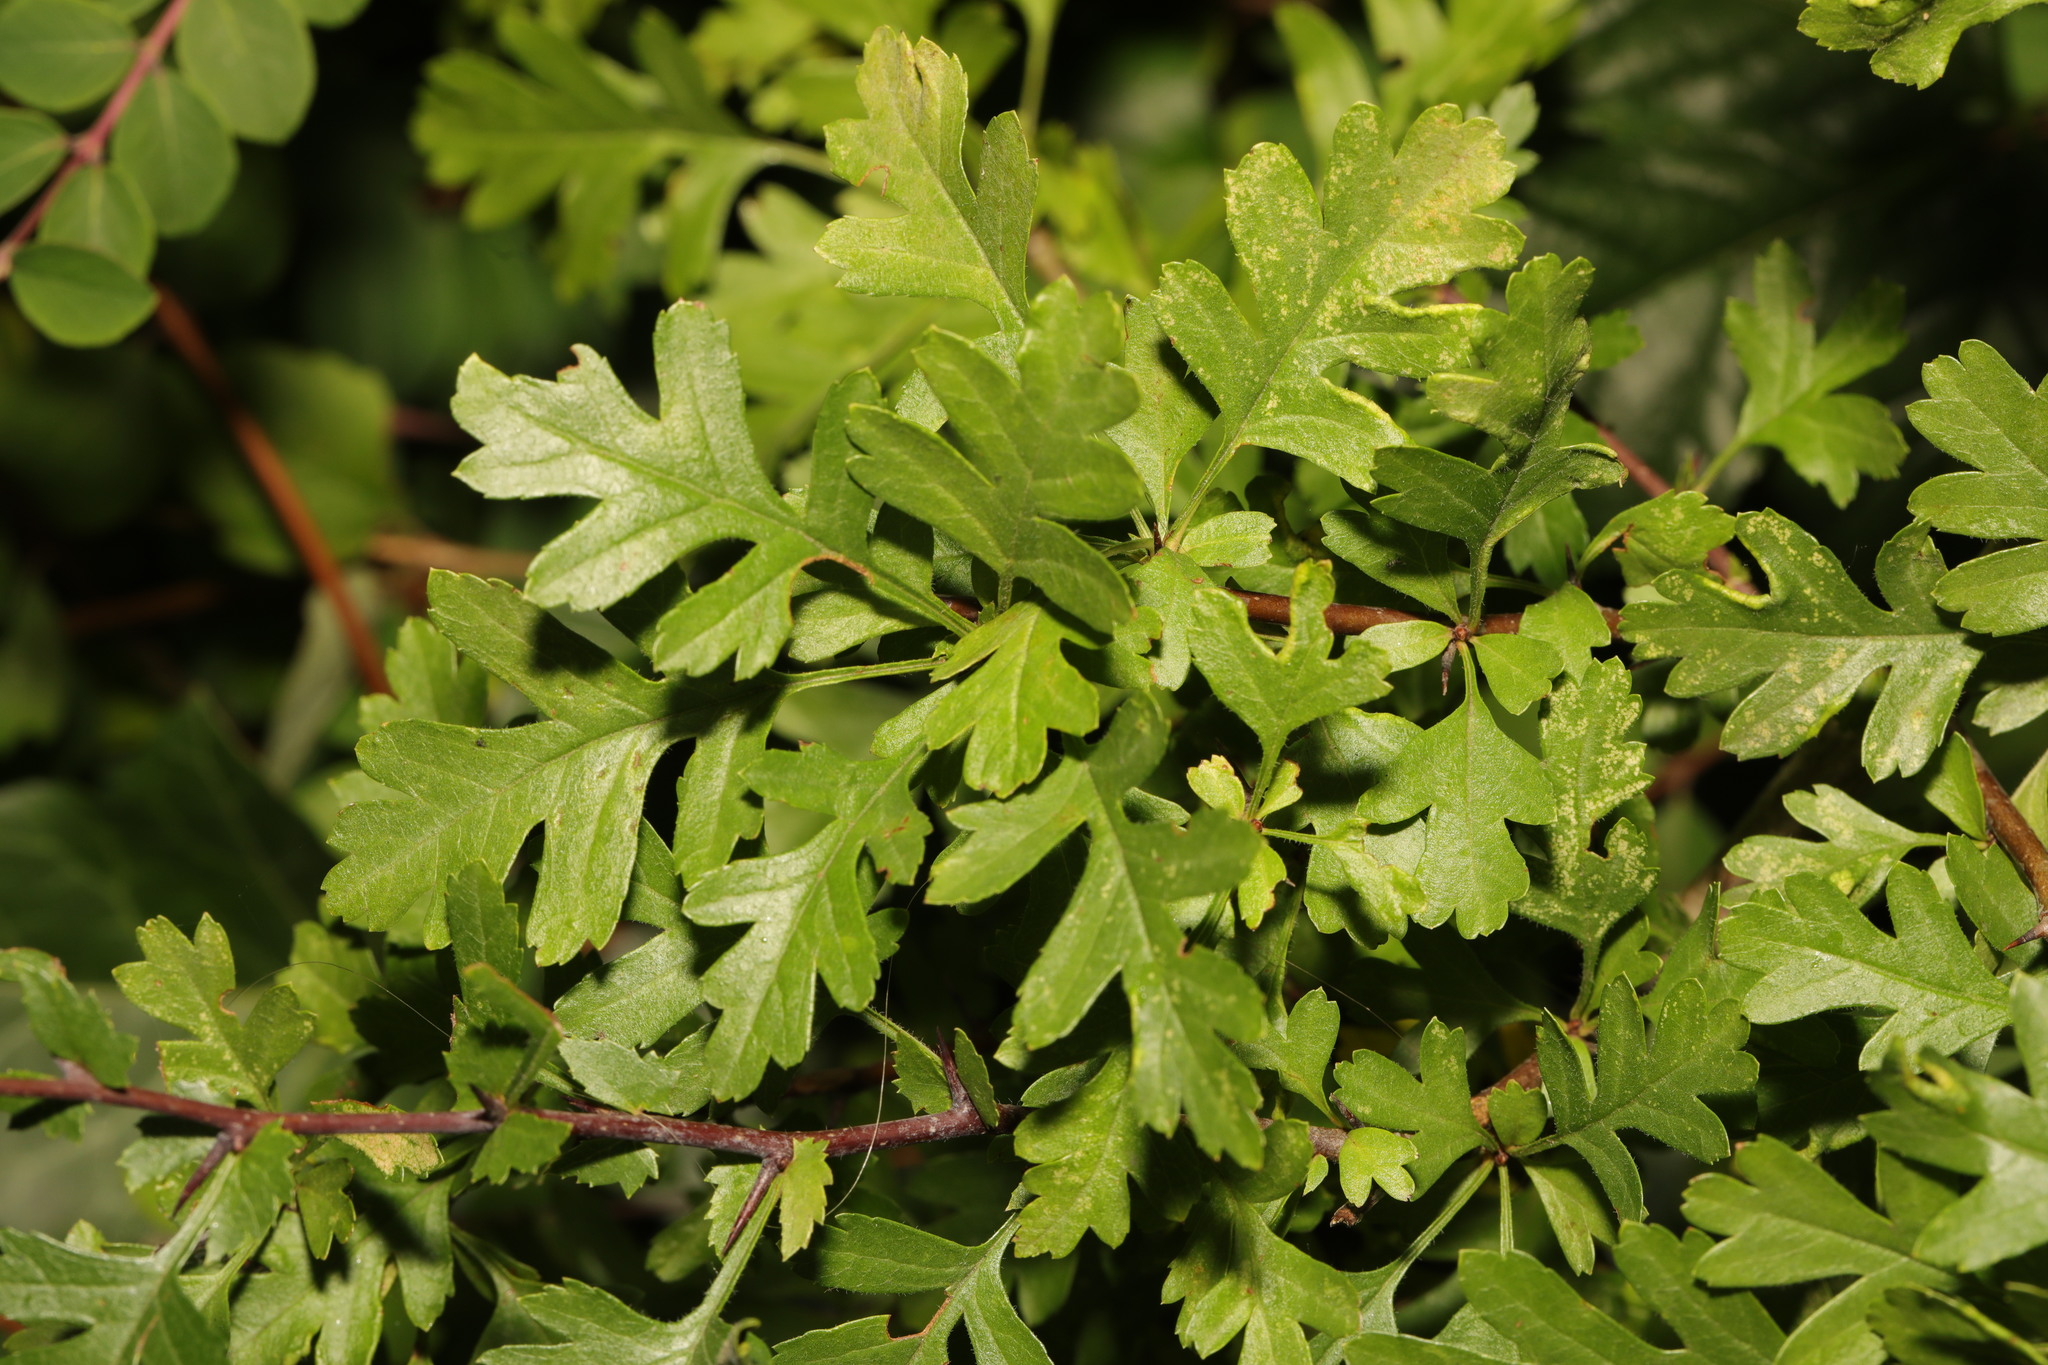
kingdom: Plantae
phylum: Tracheophyta
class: Magnoliopsida
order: Rosales
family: Rosaceae
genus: Crataegus
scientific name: Crataegus monogyna
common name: Hawthorn
